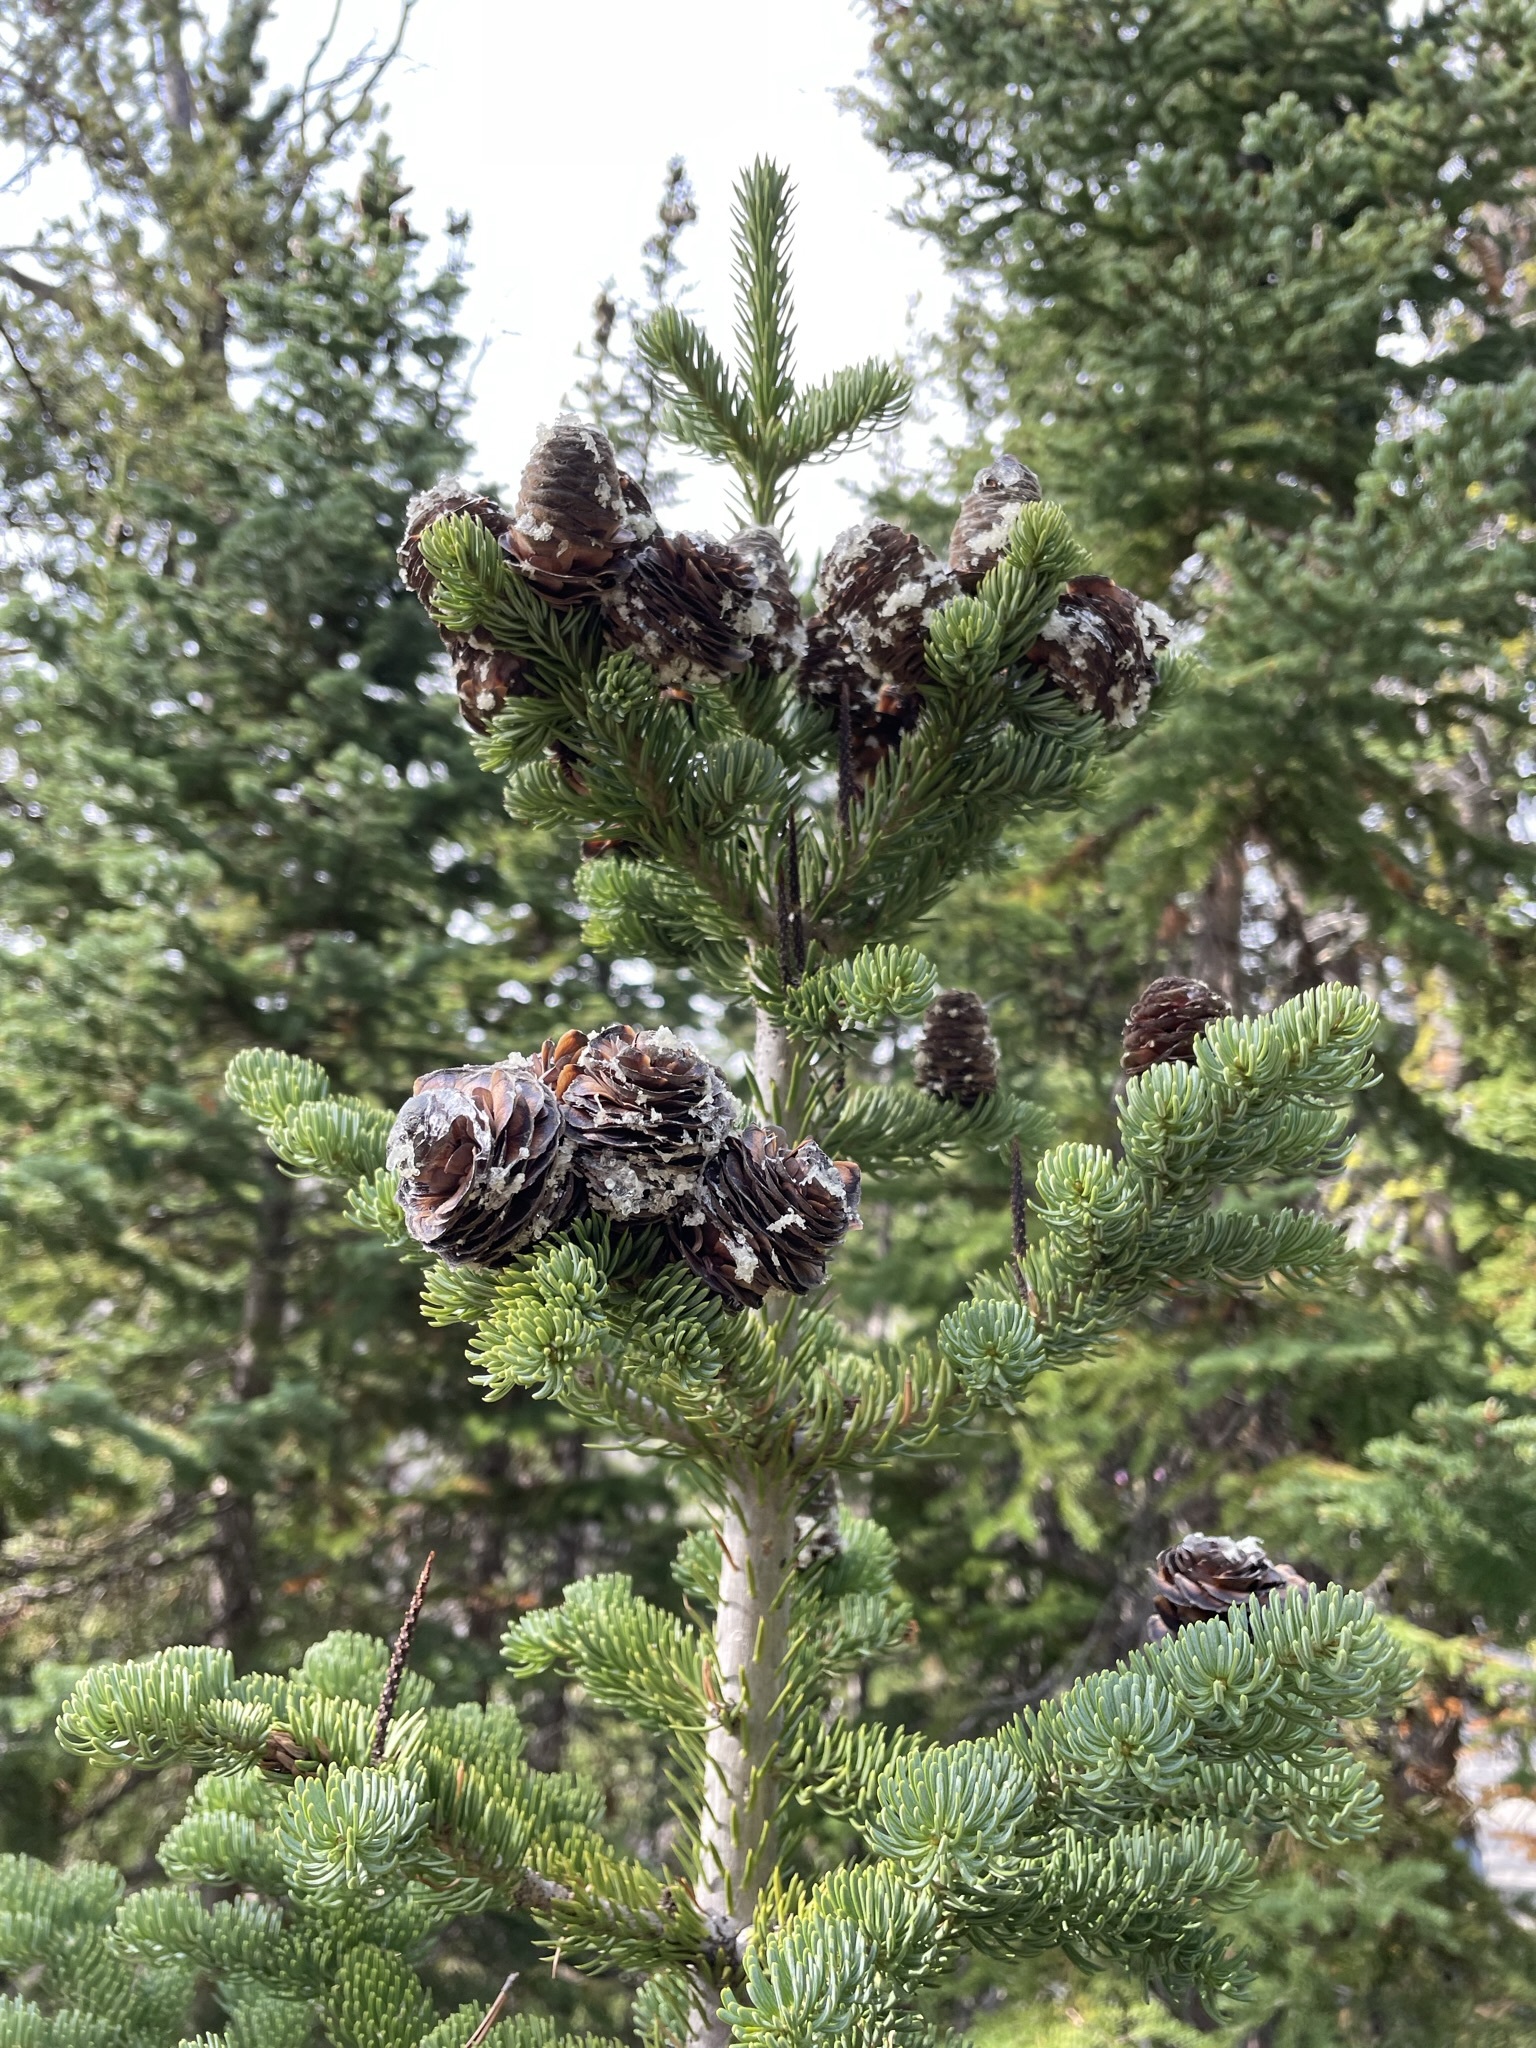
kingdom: Plantae
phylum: Tracheophyta
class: Pinopsida
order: Pinales
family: Pinaceae
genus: Abies
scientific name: Abies lasiocarpa
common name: Subalpine fir
